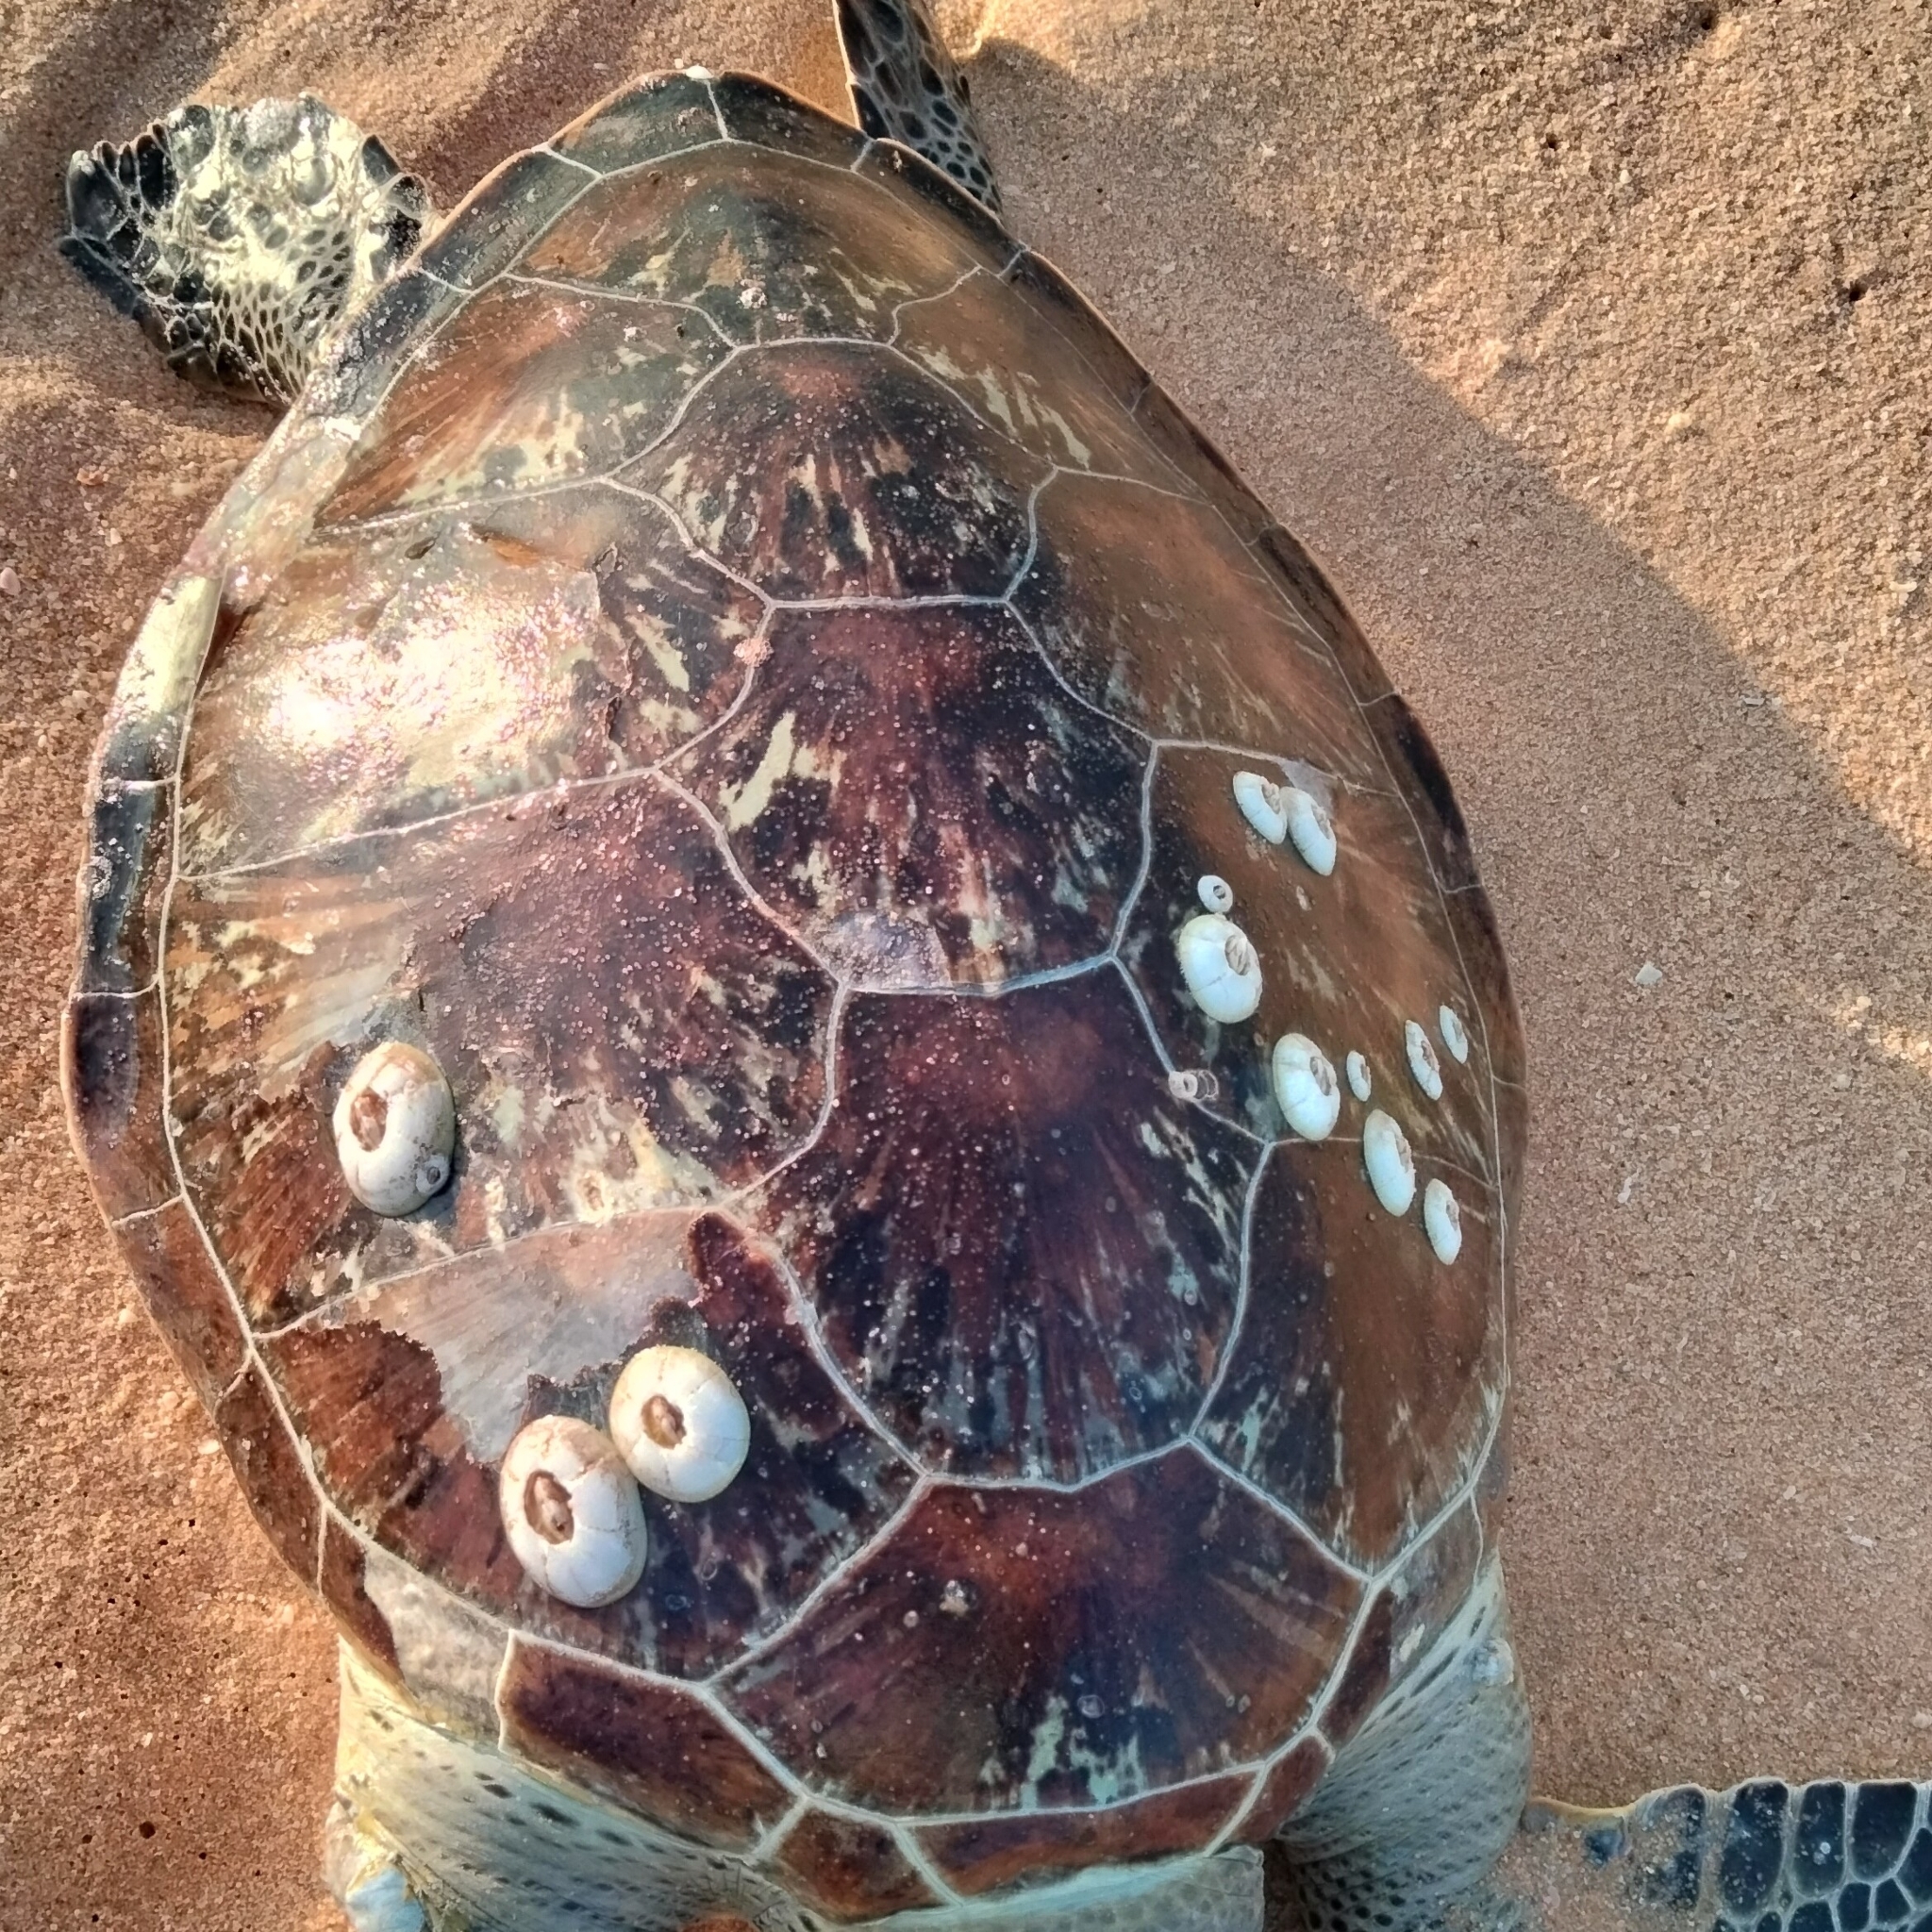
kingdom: Animalia
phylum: Chordata
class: Testudines
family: Cheloniidae
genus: Chelonia
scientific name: Chelonia mydas
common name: Green turtle
